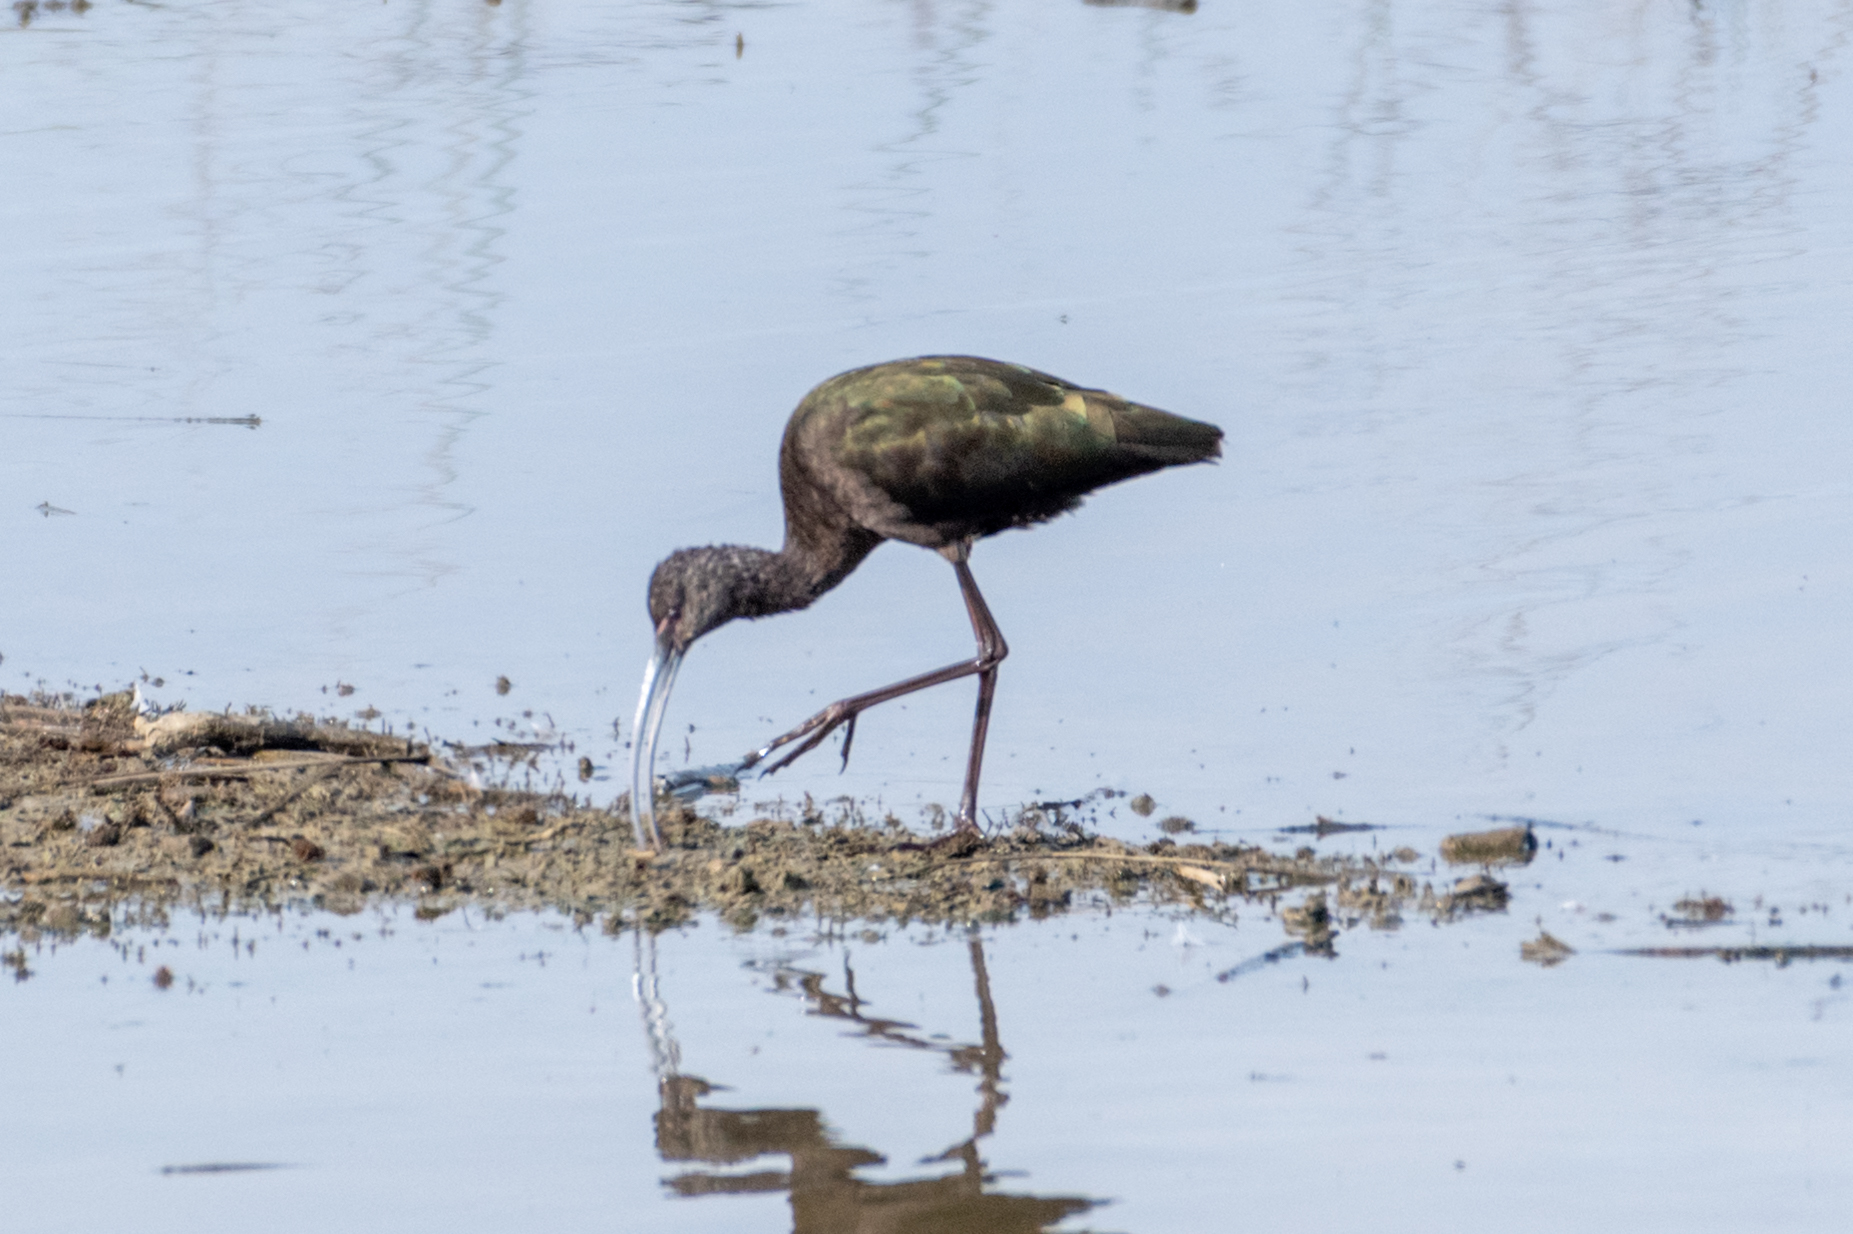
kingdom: Animalia
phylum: Chordata
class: Aves
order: Pelecaniformes
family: Threskiornithidae
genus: Plegadis
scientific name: Plegadis chihi
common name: White-faced ibis
